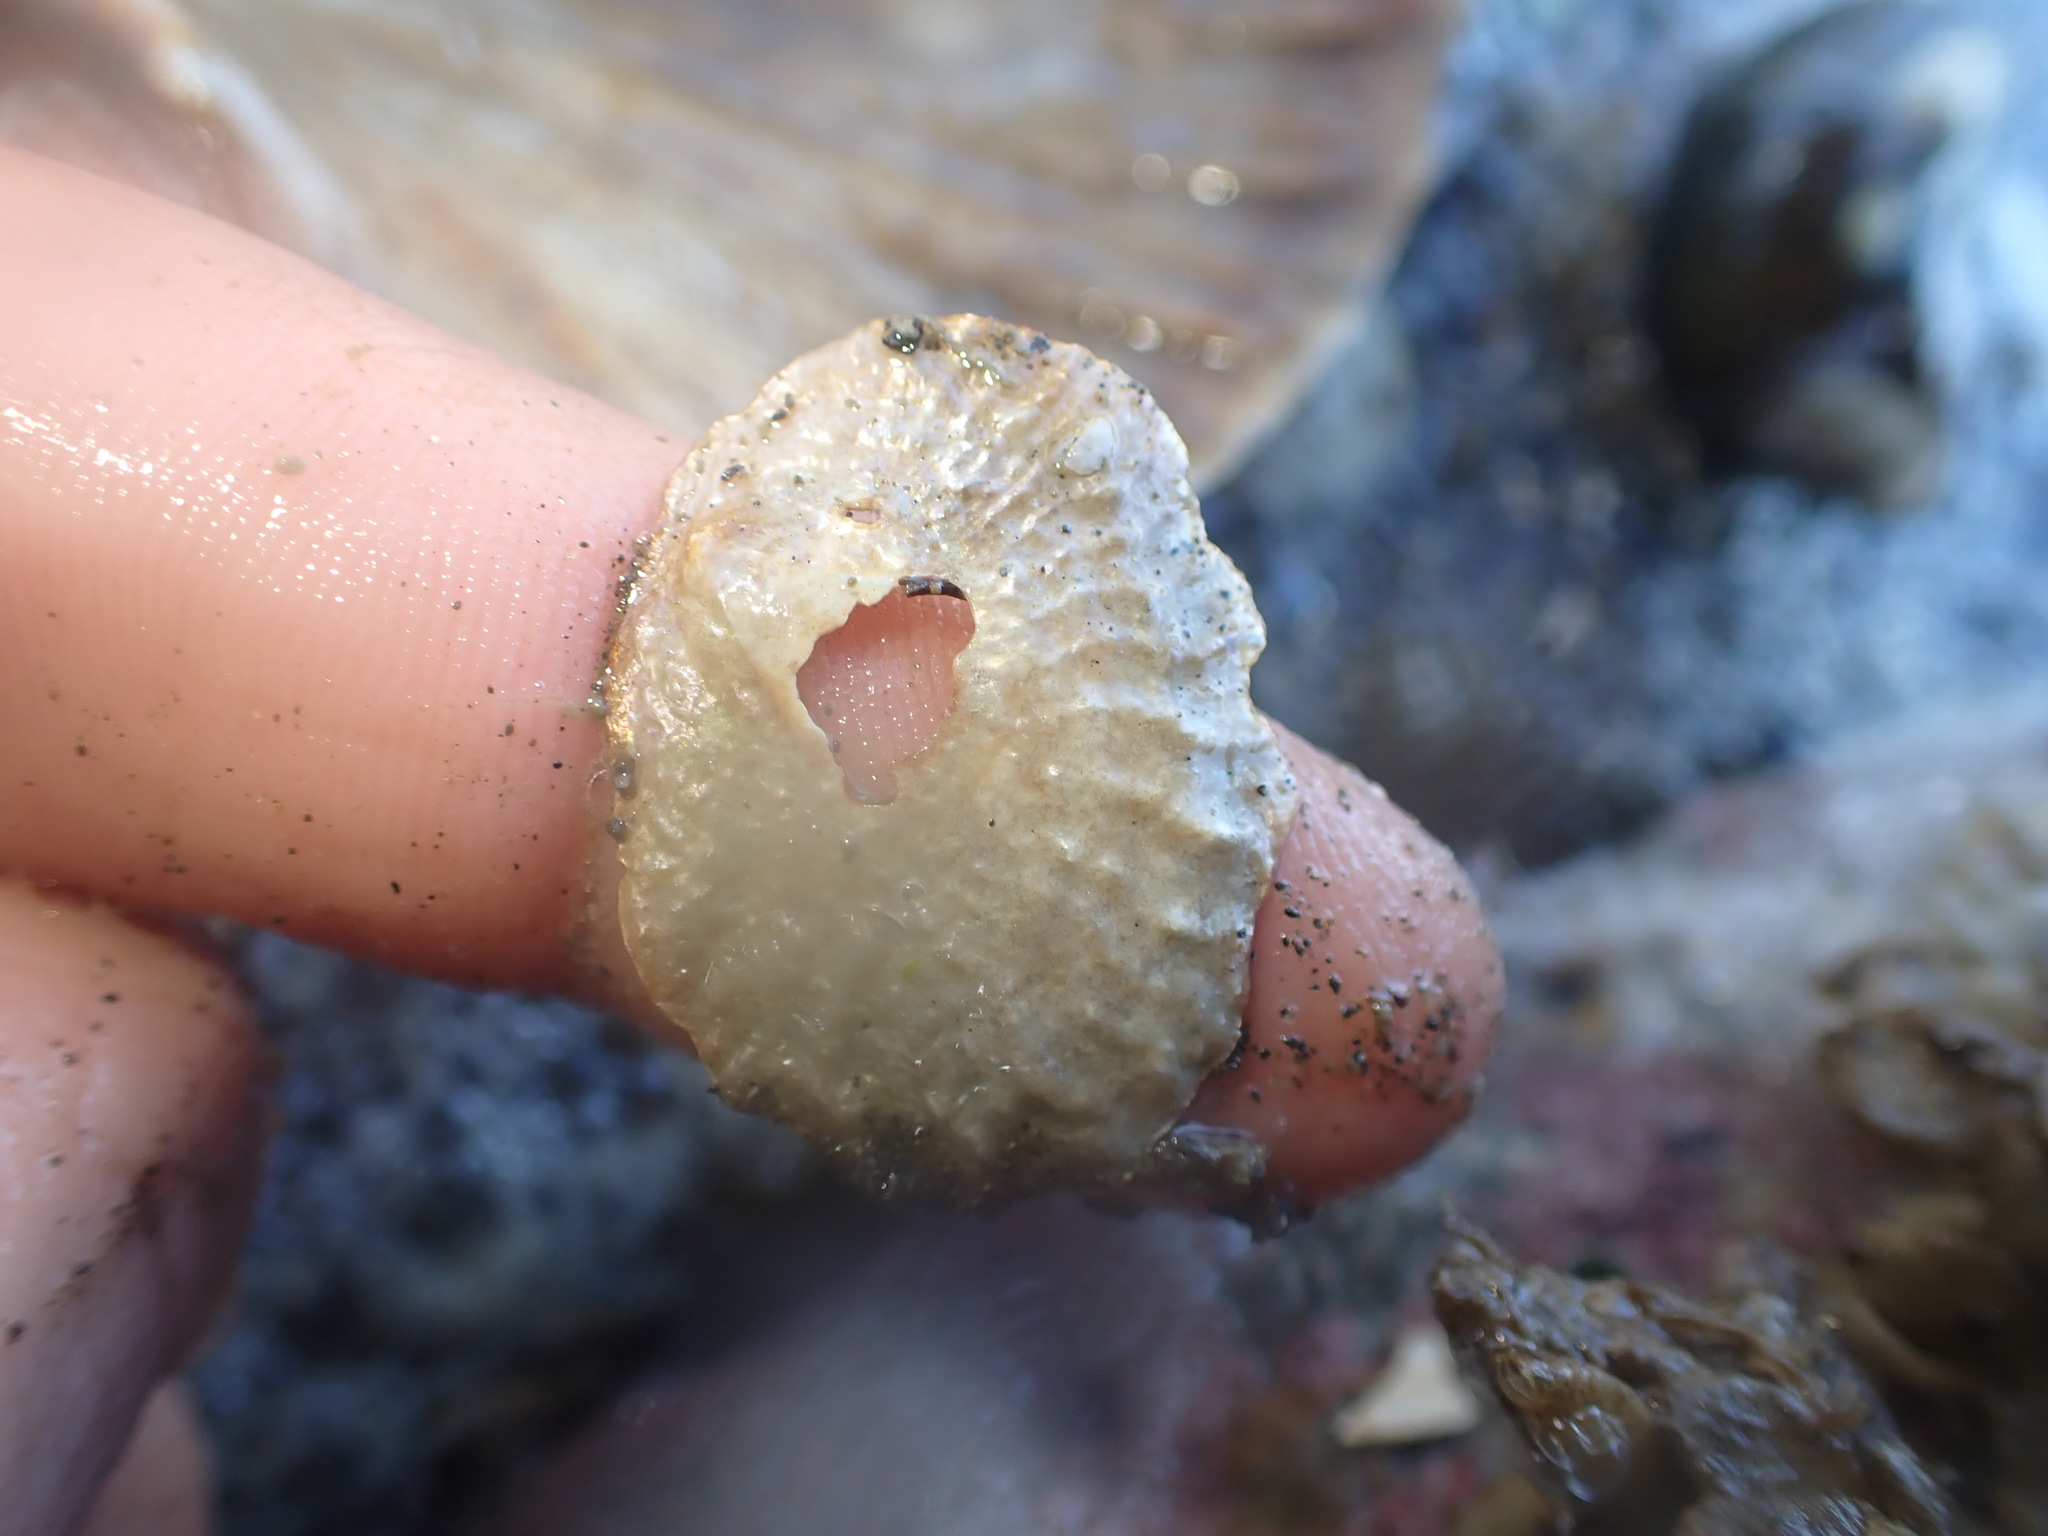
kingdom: Animalia
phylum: Mollusca
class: Bivalvia
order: Pectinida
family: Anomiidae
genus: Anomia
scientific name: Anomia trigonopsis
